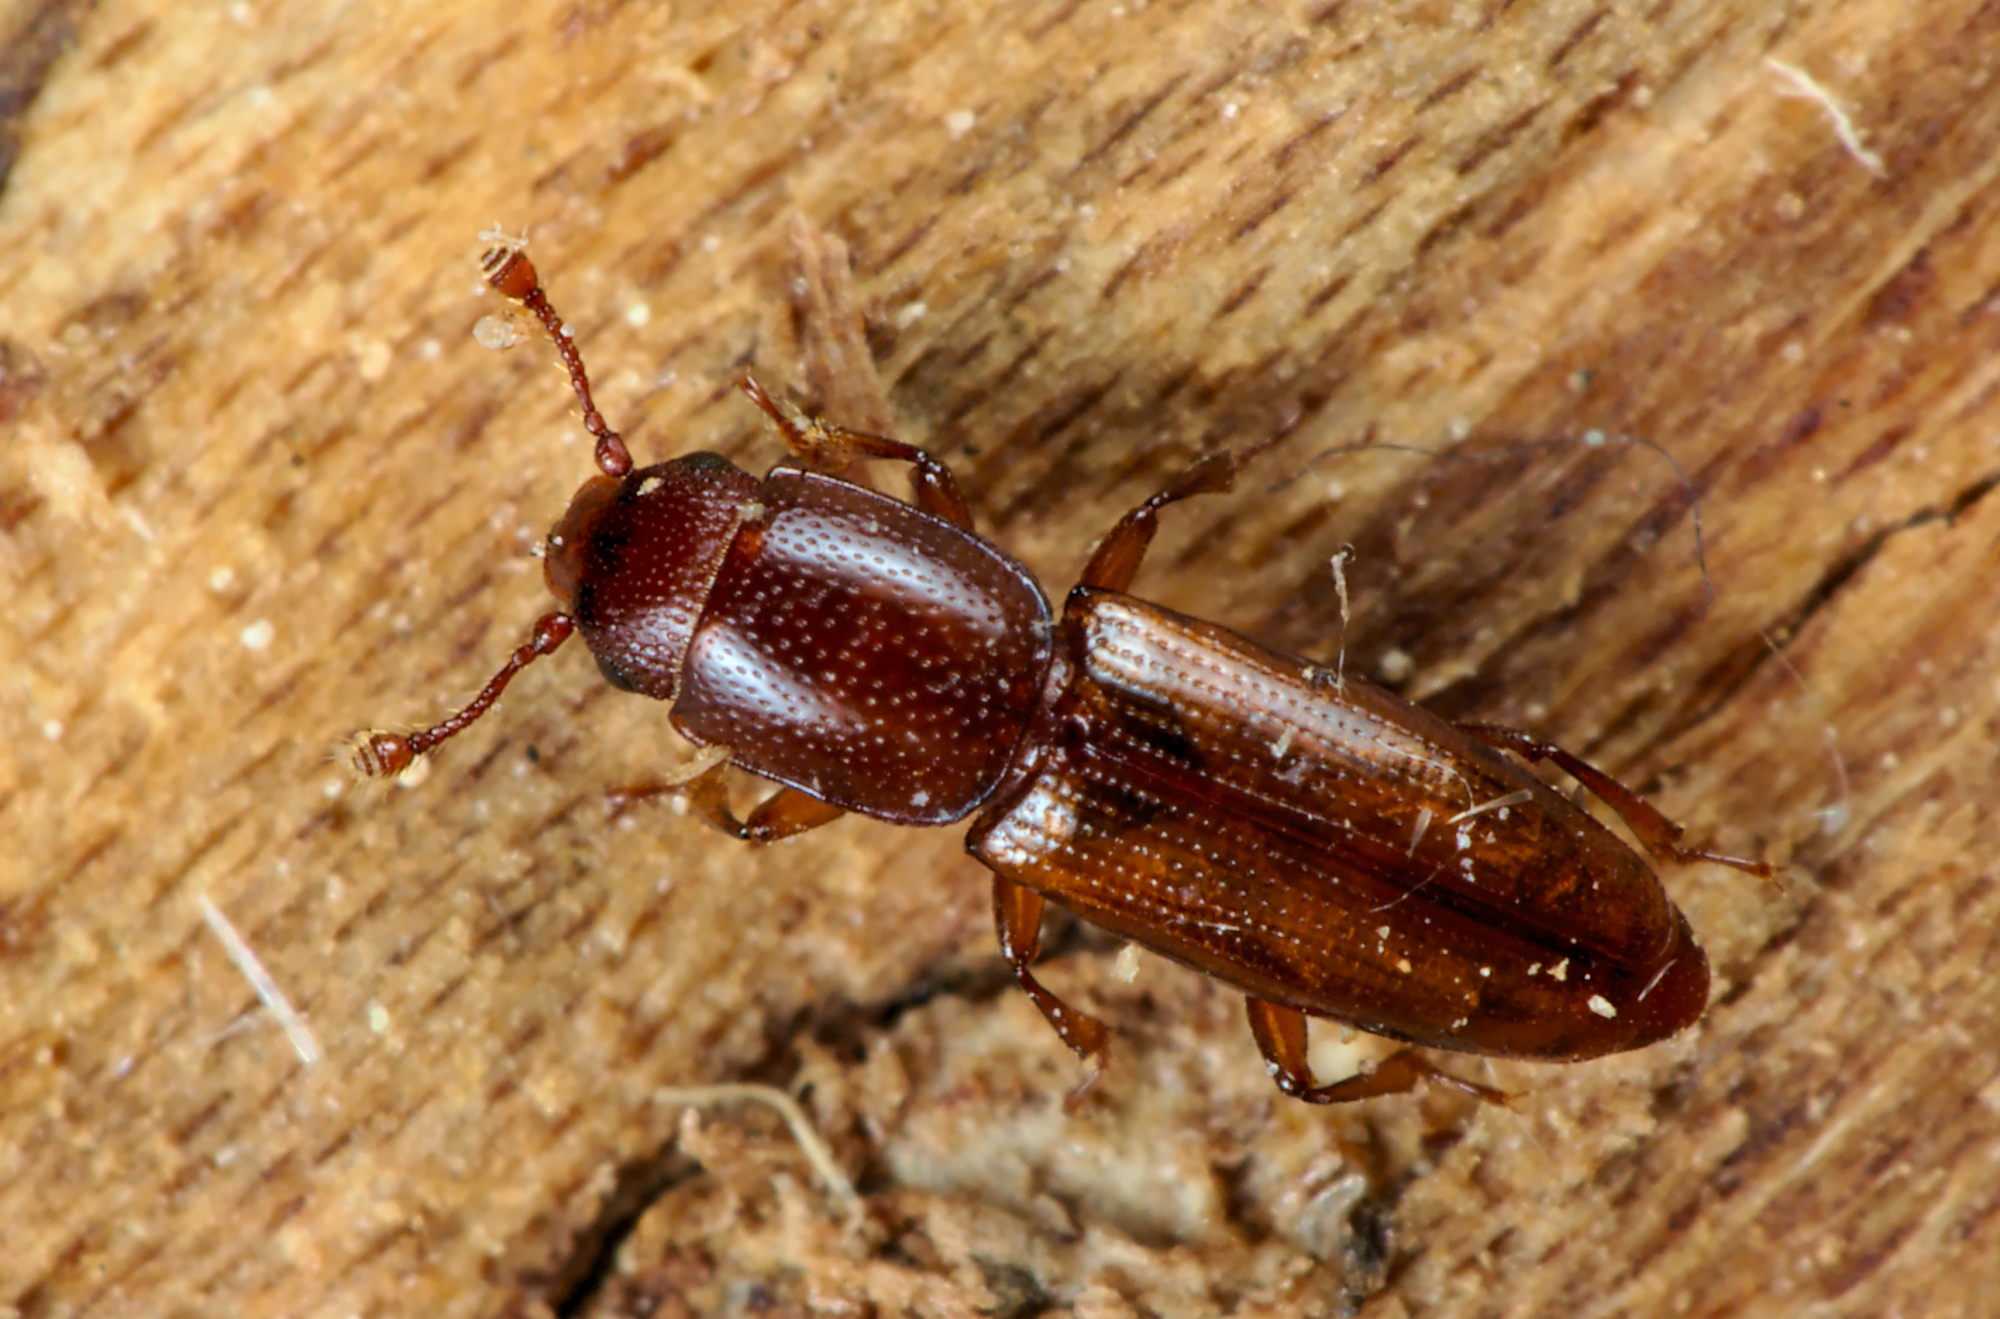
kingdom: Animalia
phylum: Arthropoda
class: Insecta
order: Coleoptera
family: Monotomidae
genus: Rhizophagus
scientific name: Rhizophagus perforatus
